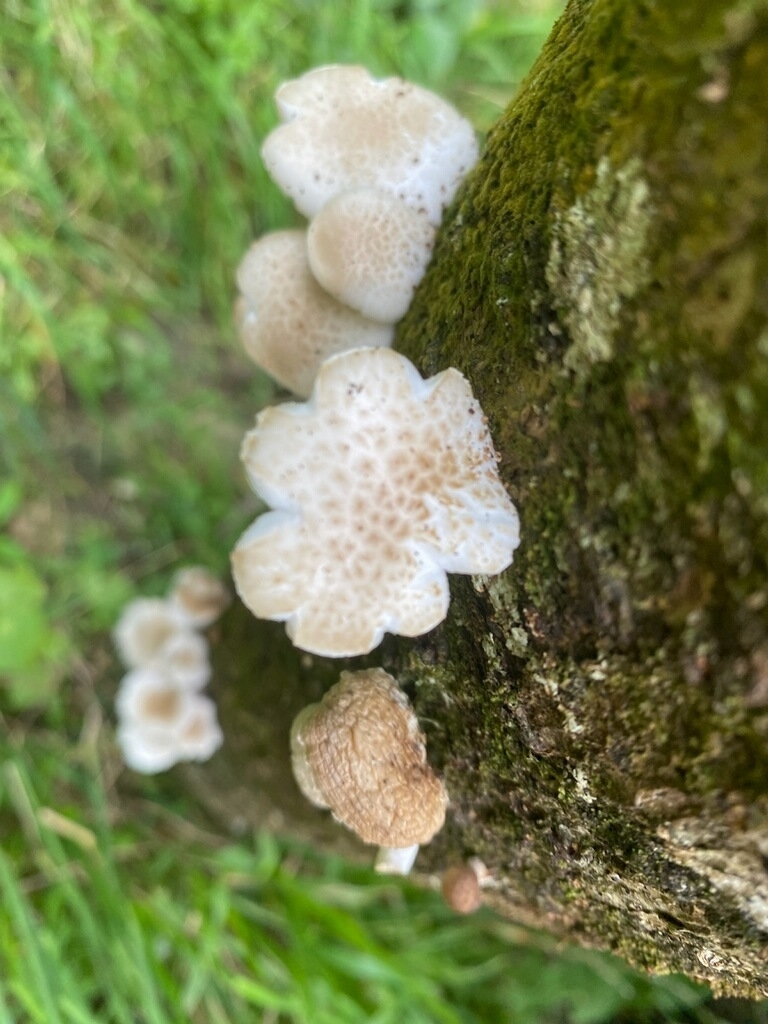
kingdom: Fungi
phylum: Basidiomycota
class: Agaricomycetes
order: Agaricales
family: Physalacriaceae
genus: Oudemansiella
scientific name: Oudemansiella australis
